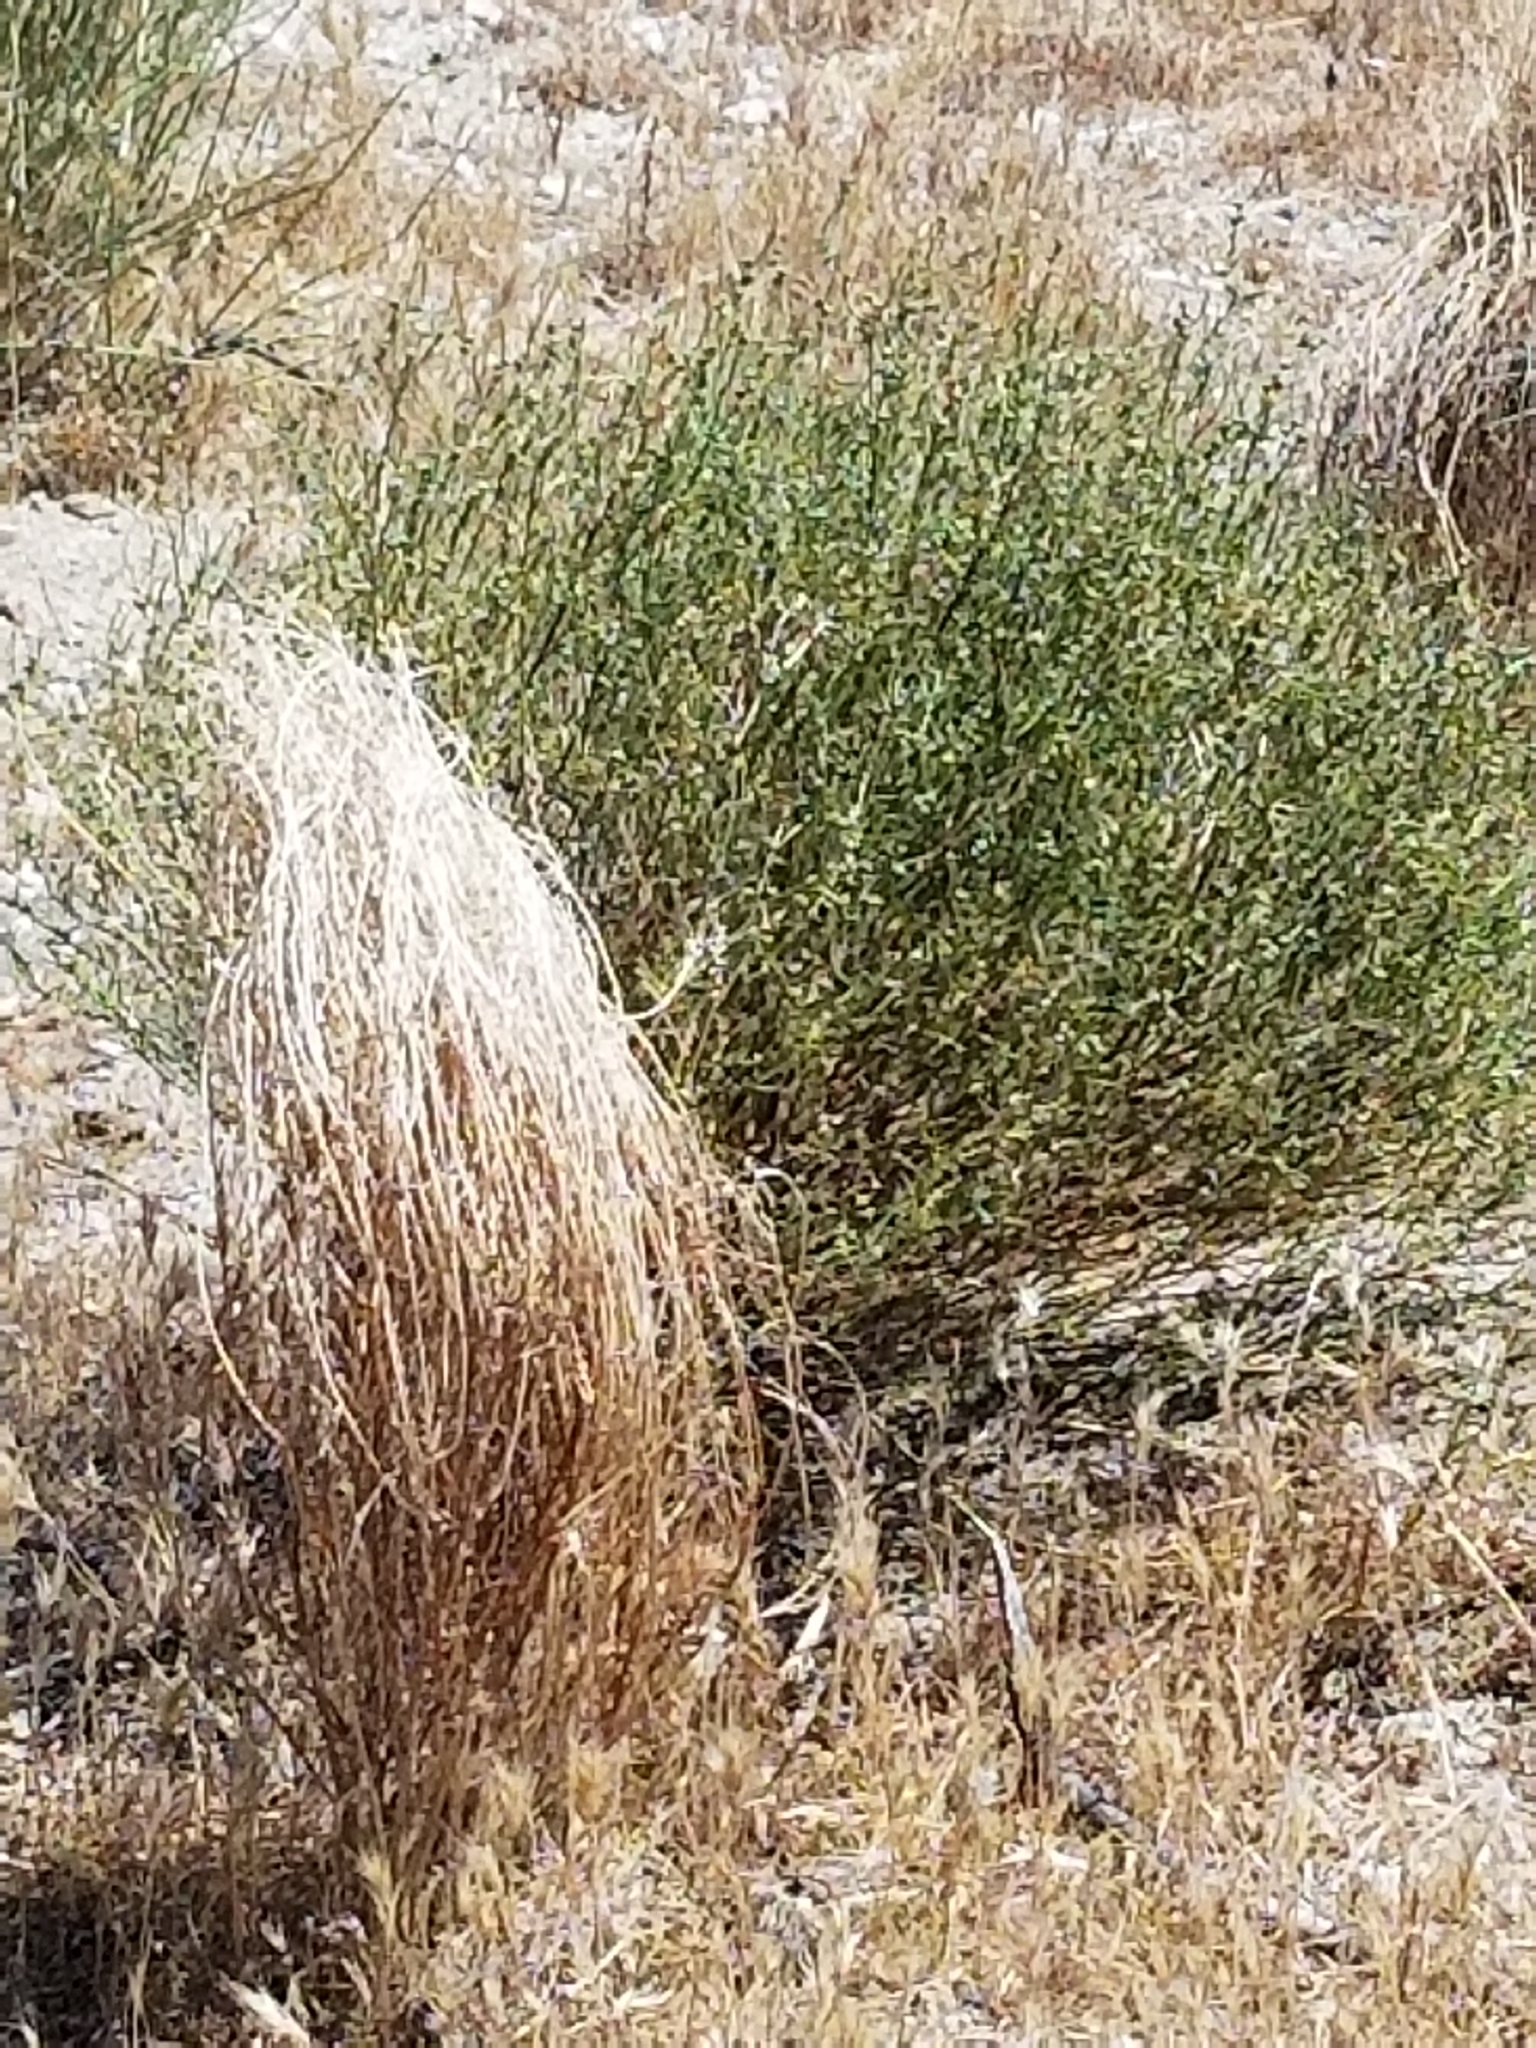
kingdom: Plantae
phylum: Tracheophyta
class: Magnoliopsida
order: Malpighiales
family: Euphorbiaceae
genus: Stillingia
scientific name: Stillingia linearifolia
